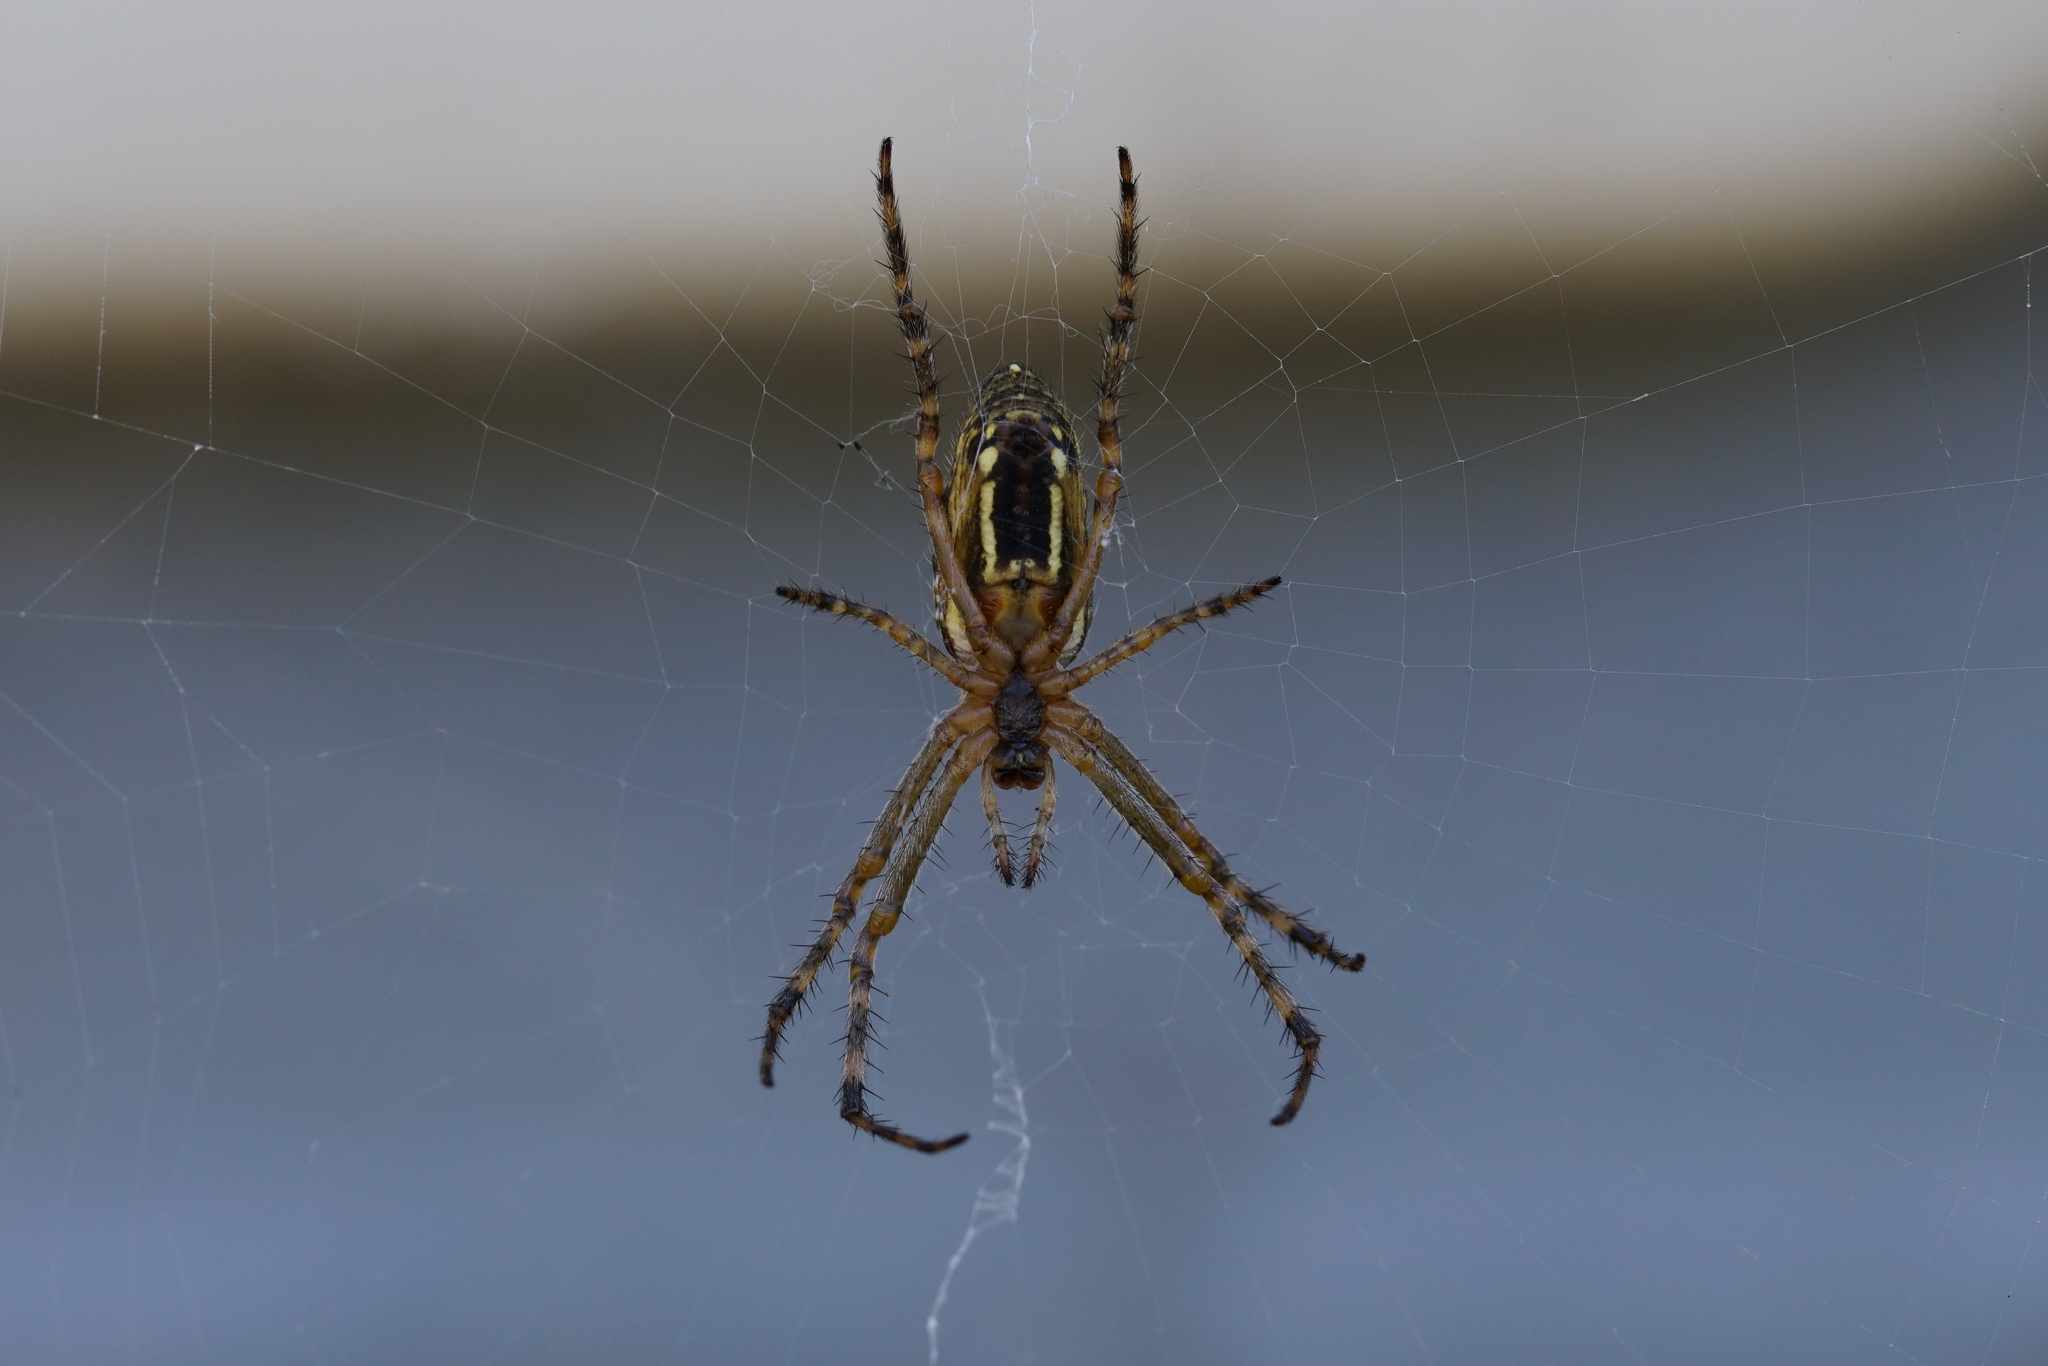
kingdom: Animalia
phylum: Arthropoda
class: Arachnida
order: Araneae
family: Araneidae
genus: Plebs
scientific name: Plebs bradleyi
